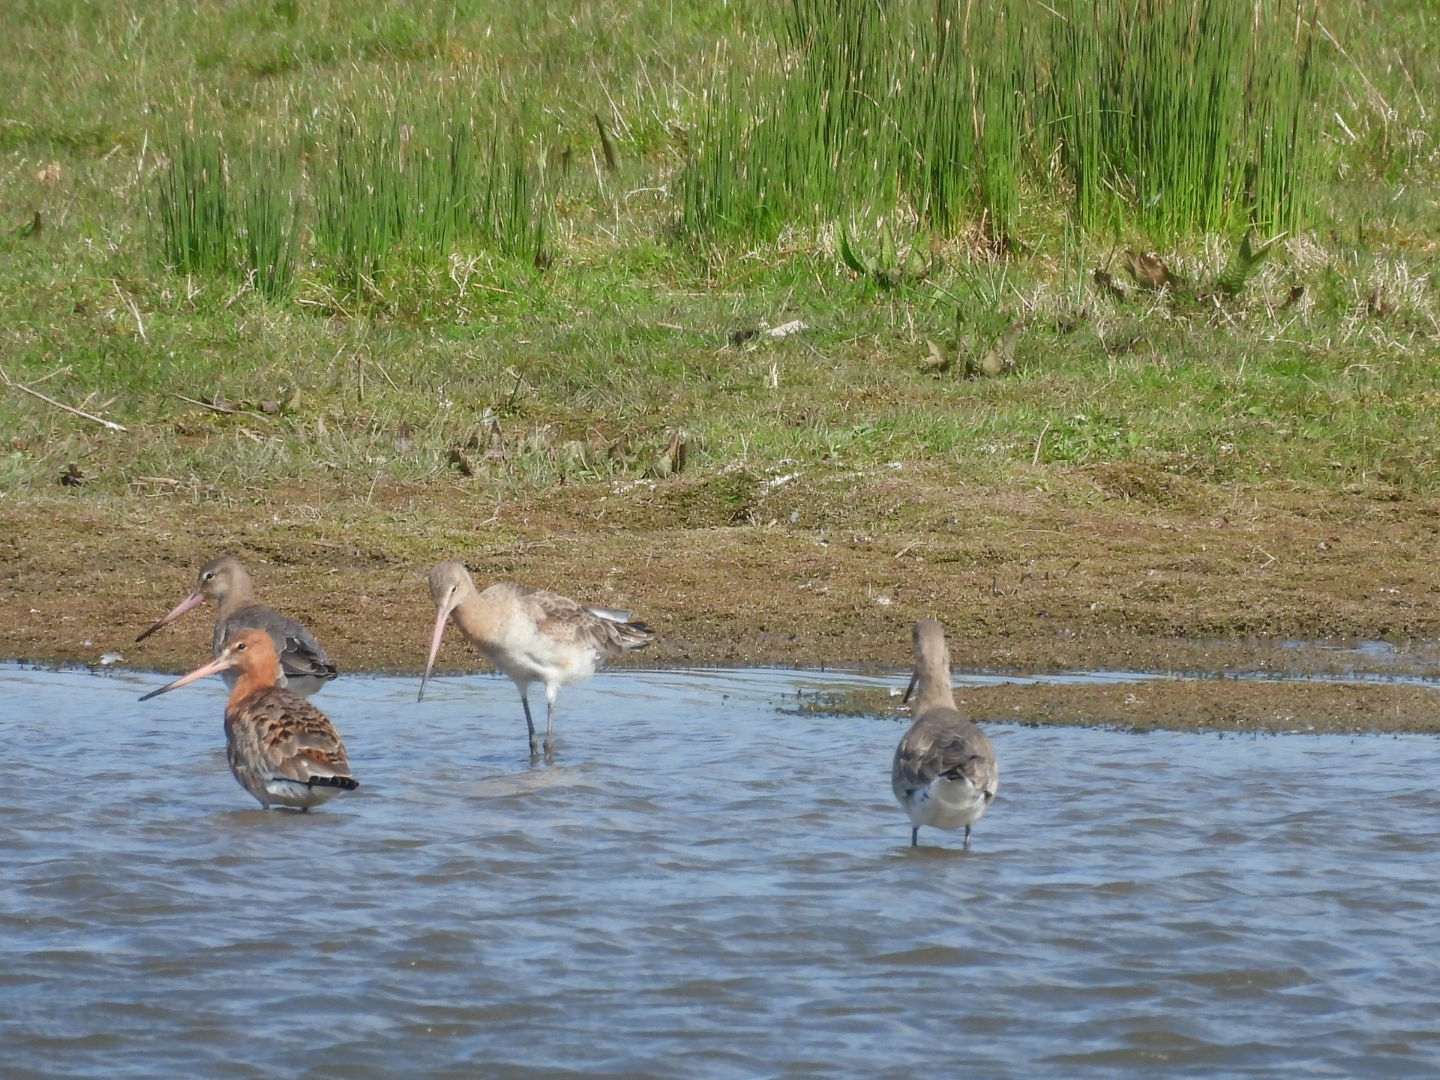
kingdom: Animalia
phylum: Chordata
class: Aves
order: Charadriiformes
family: Scolopacidae
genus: Limosa
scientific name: Limosa limosa
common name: Black-tailed godwit
